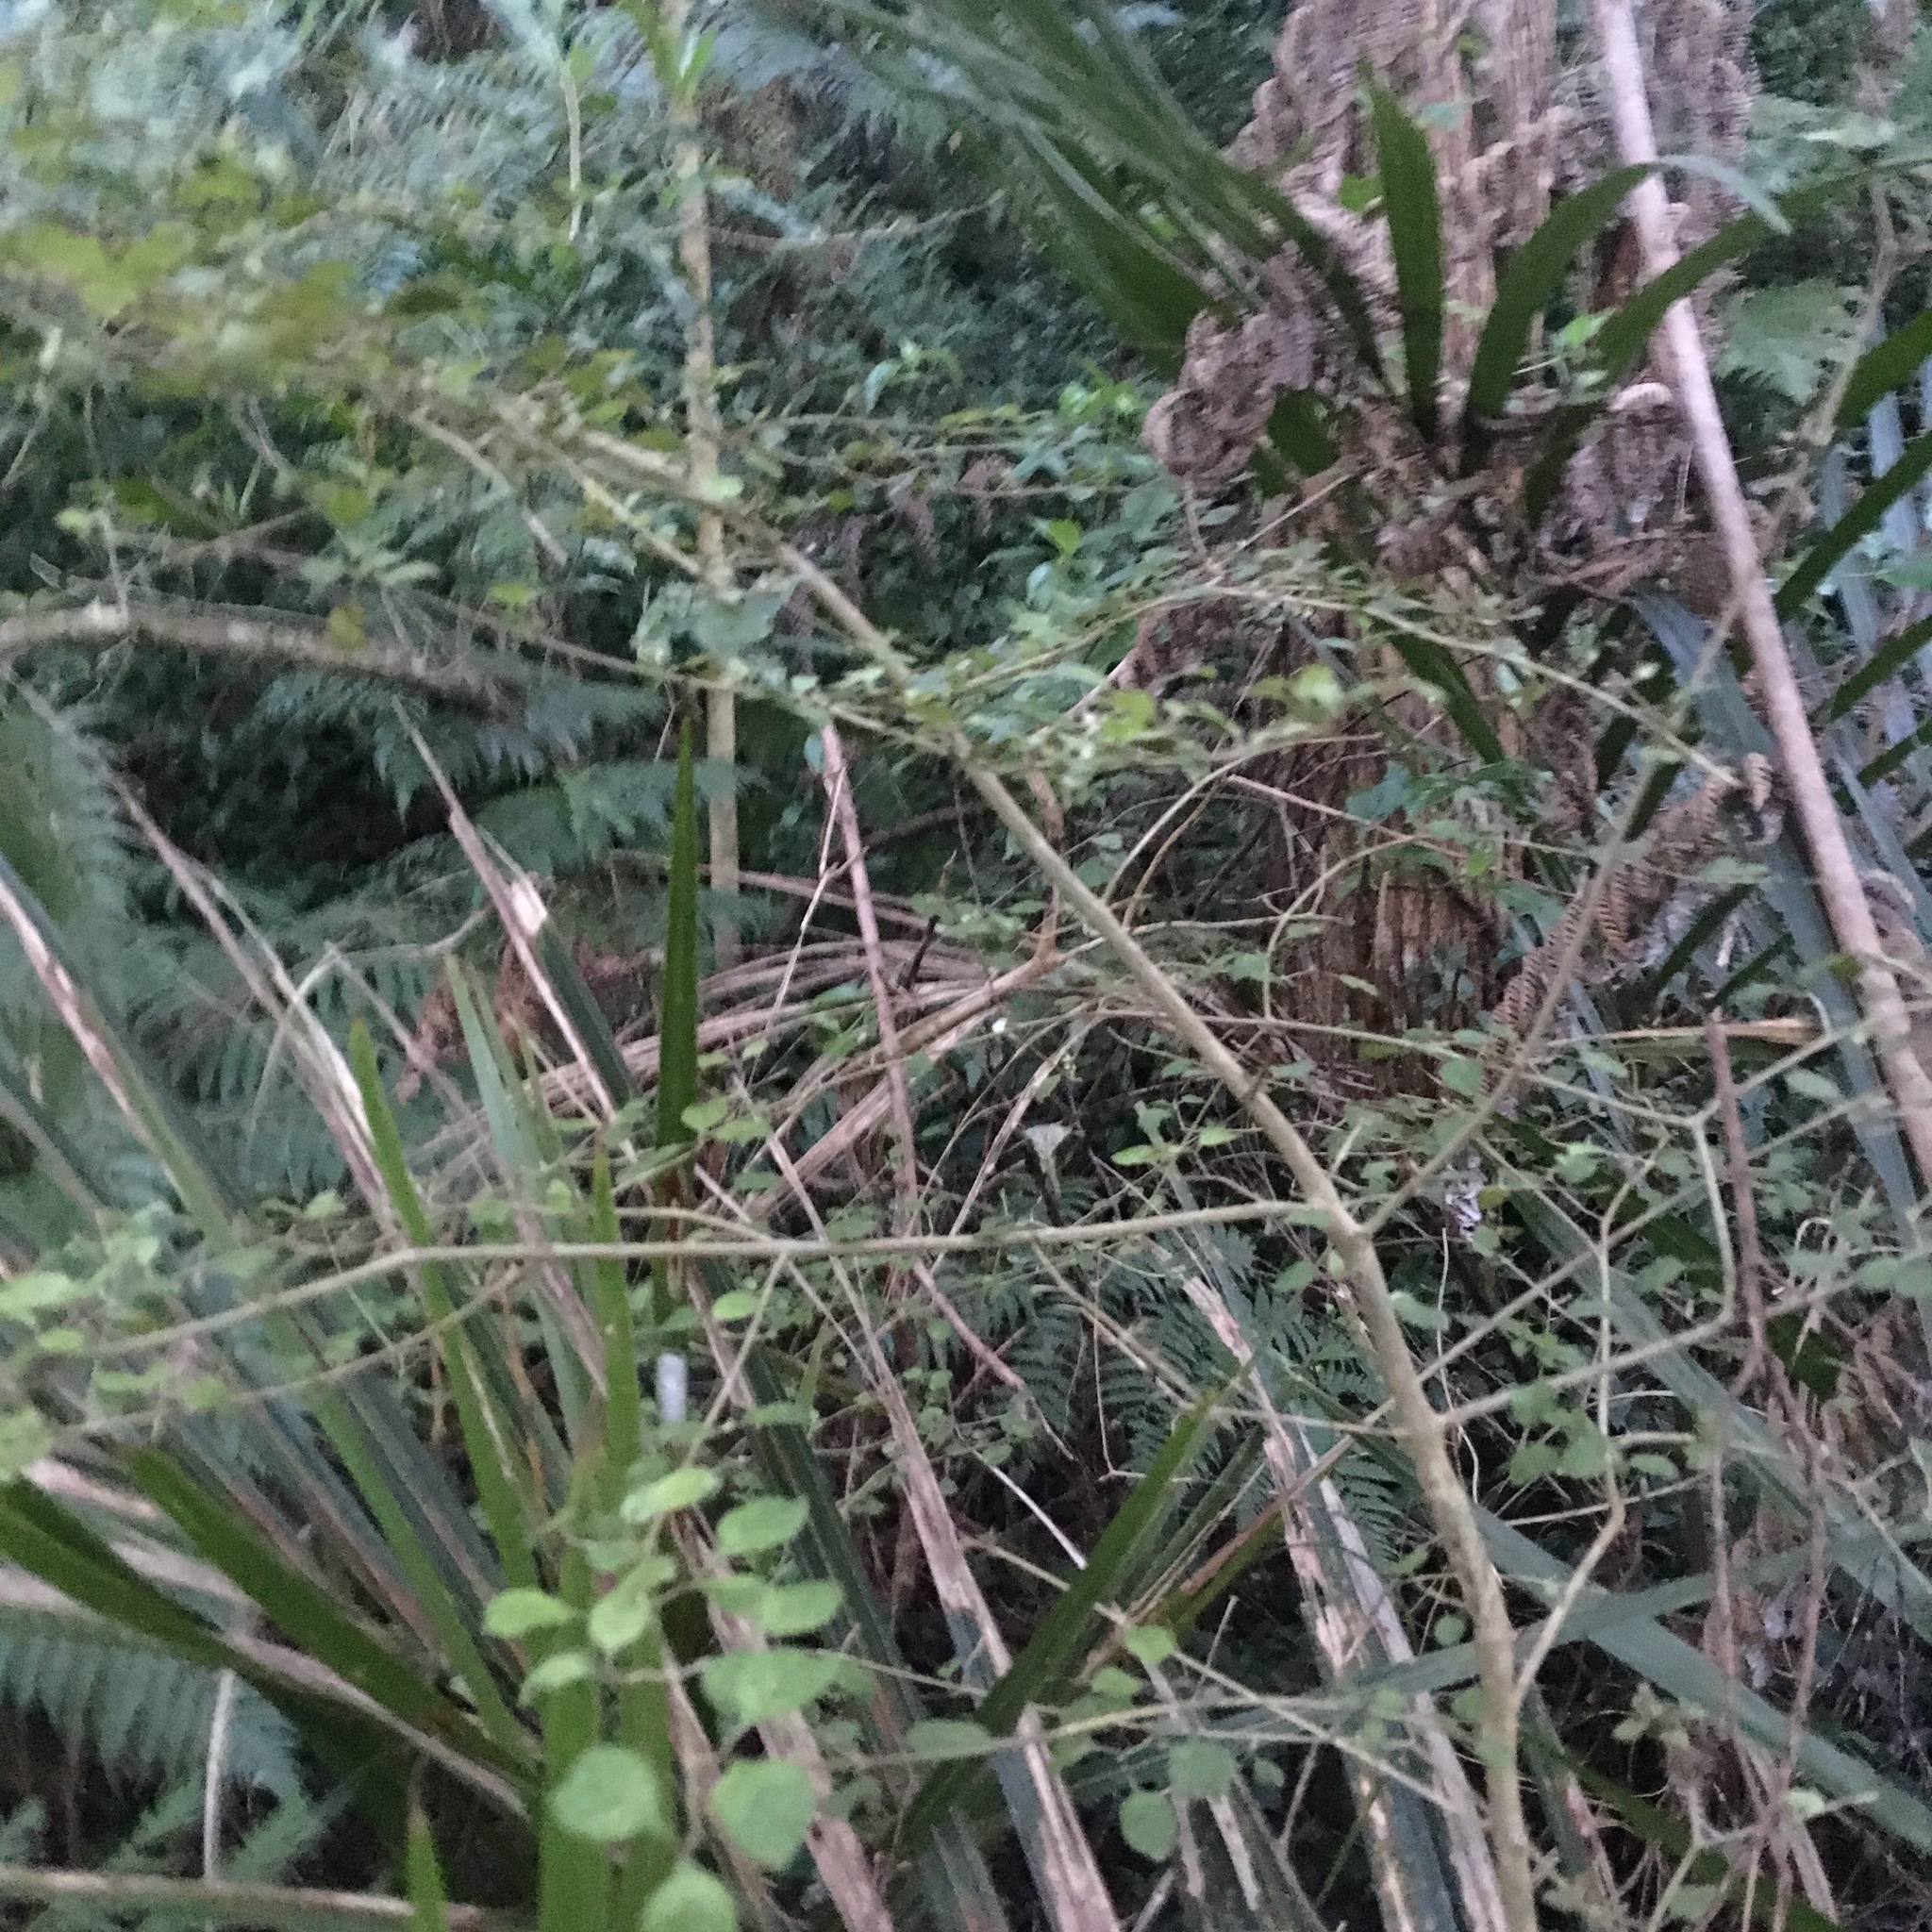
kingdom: Plantae
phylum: Tracheophyta
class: Magnoliopsida
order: Gentianales
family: Rubiaceae
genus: Coprosma
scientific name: Coprosma areolata
